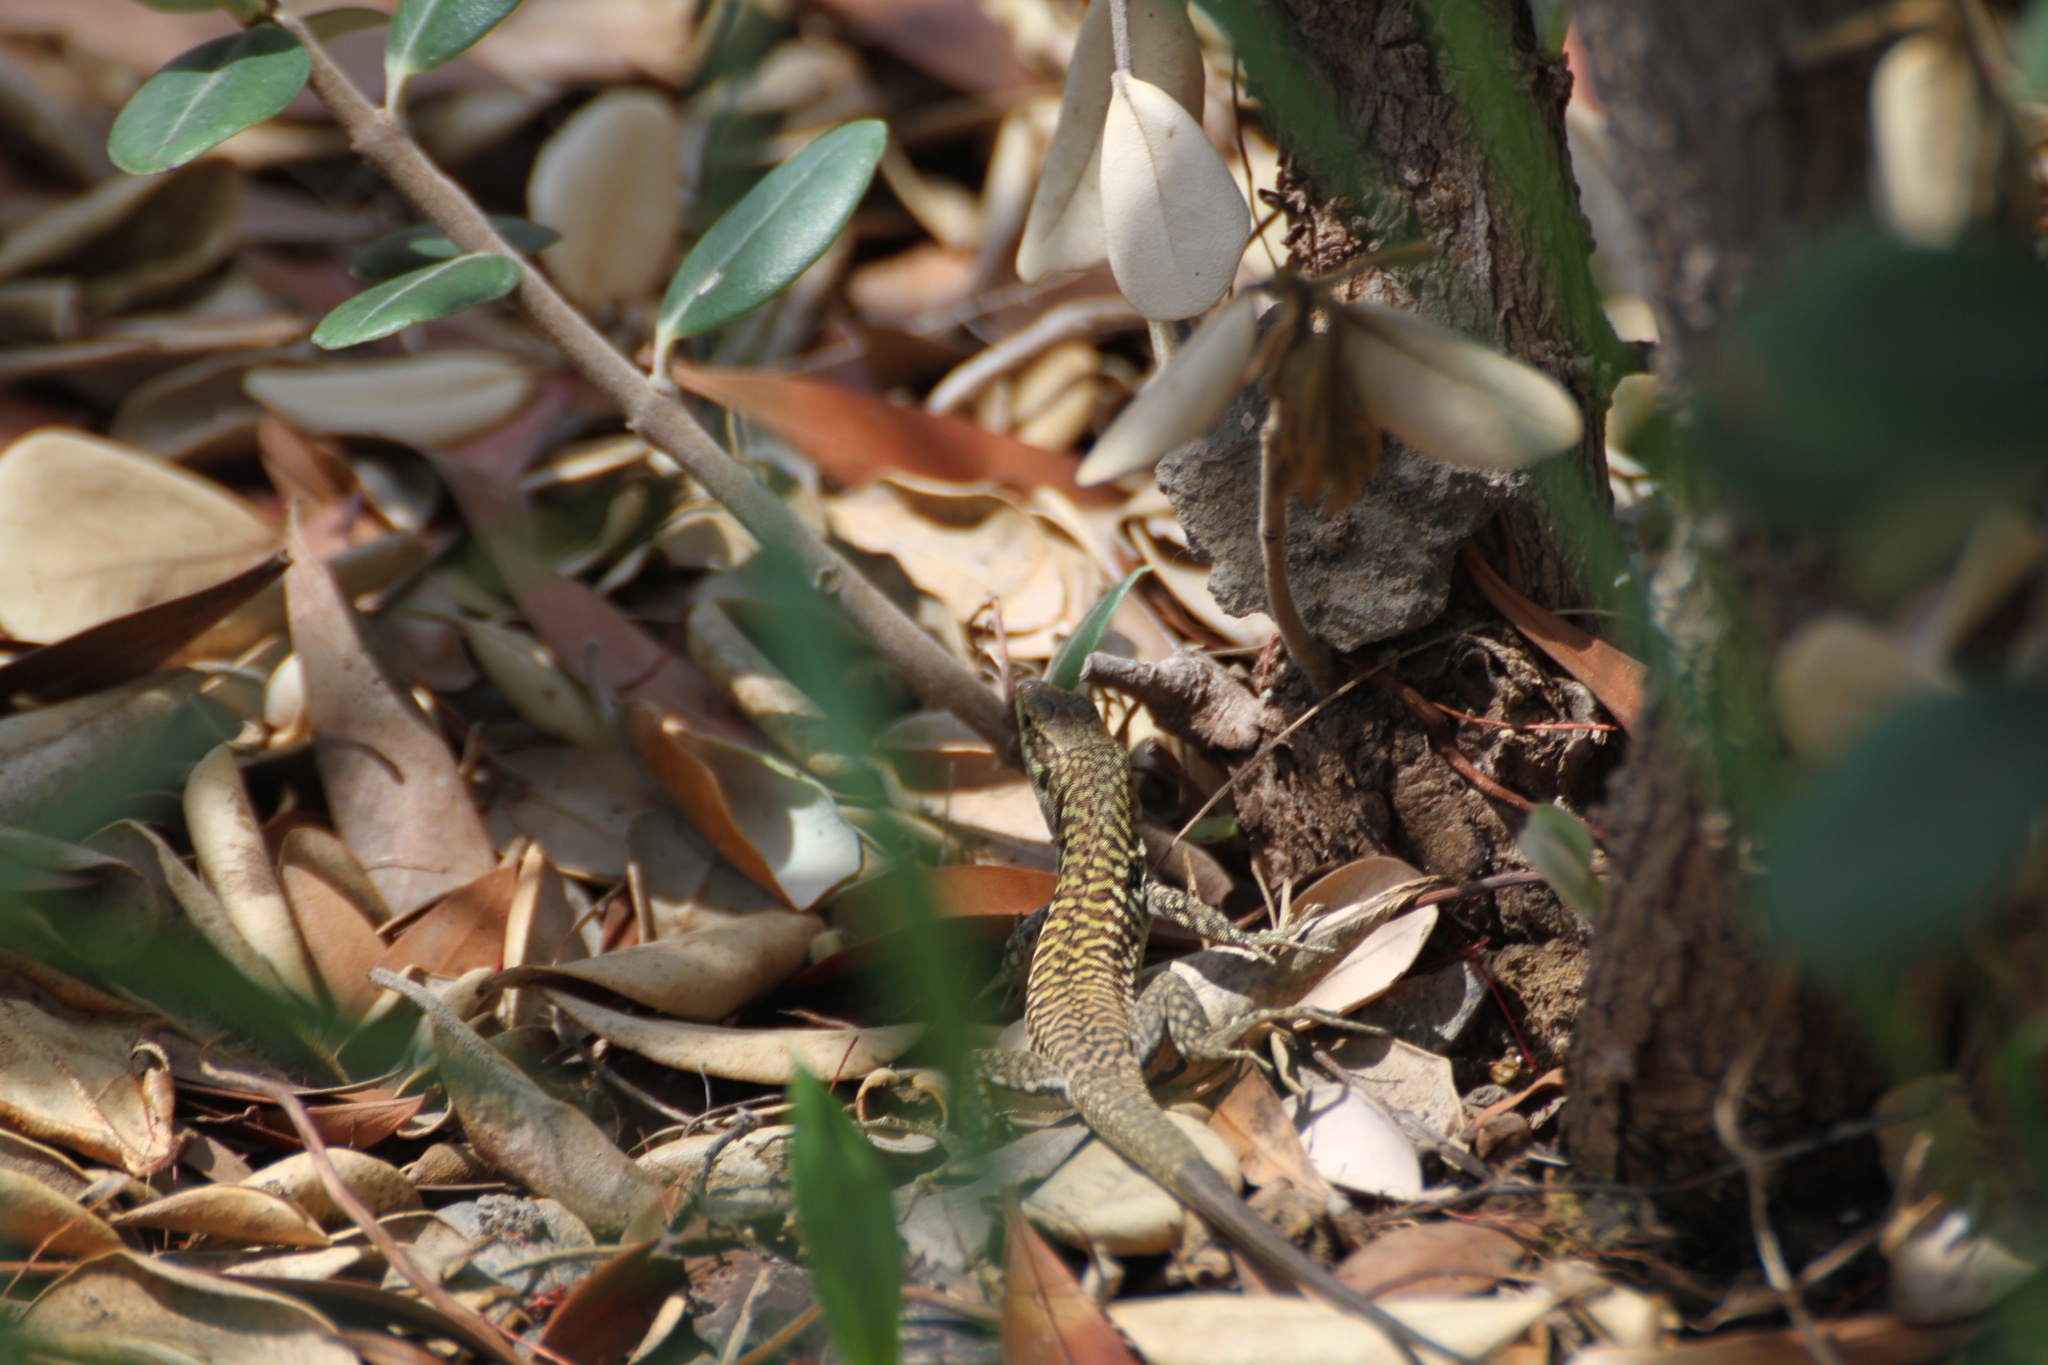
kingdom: Animalia
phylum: Chordata
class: Squamata
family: Lacertidae
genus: Podarcis
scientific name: Podarcis siculus
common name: Italian wall lizard
